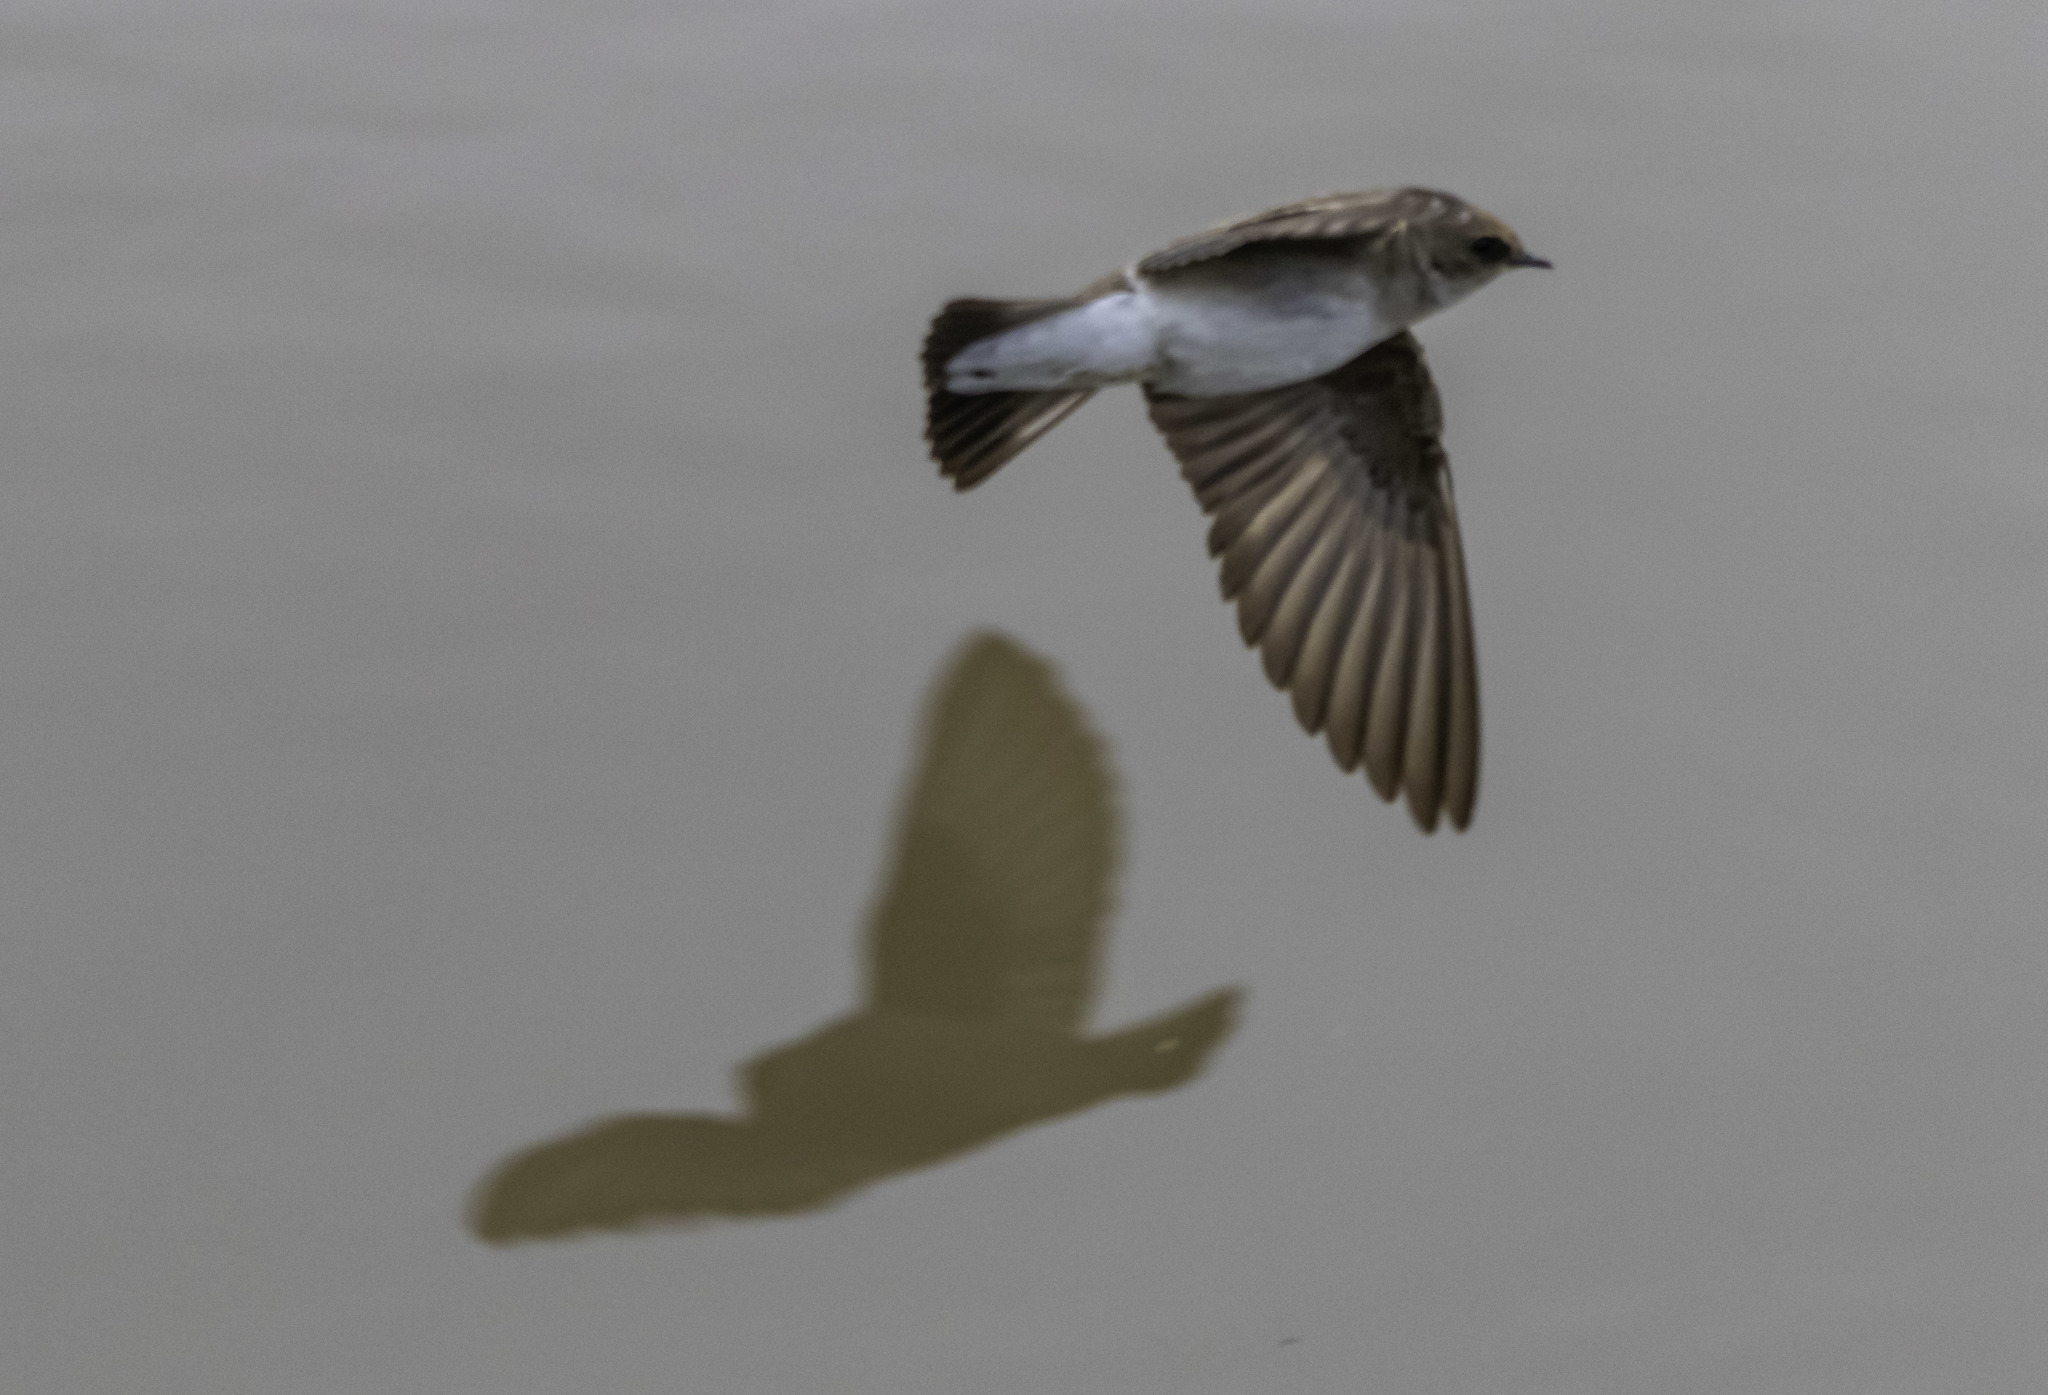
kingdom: Animalia
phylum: Chordata
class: Aves
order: Passeriformes
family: Hirundinidae
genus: Stelgidopteryx
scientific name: Stelgidopteryx serripennis
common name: Northern rough-winged swallow
